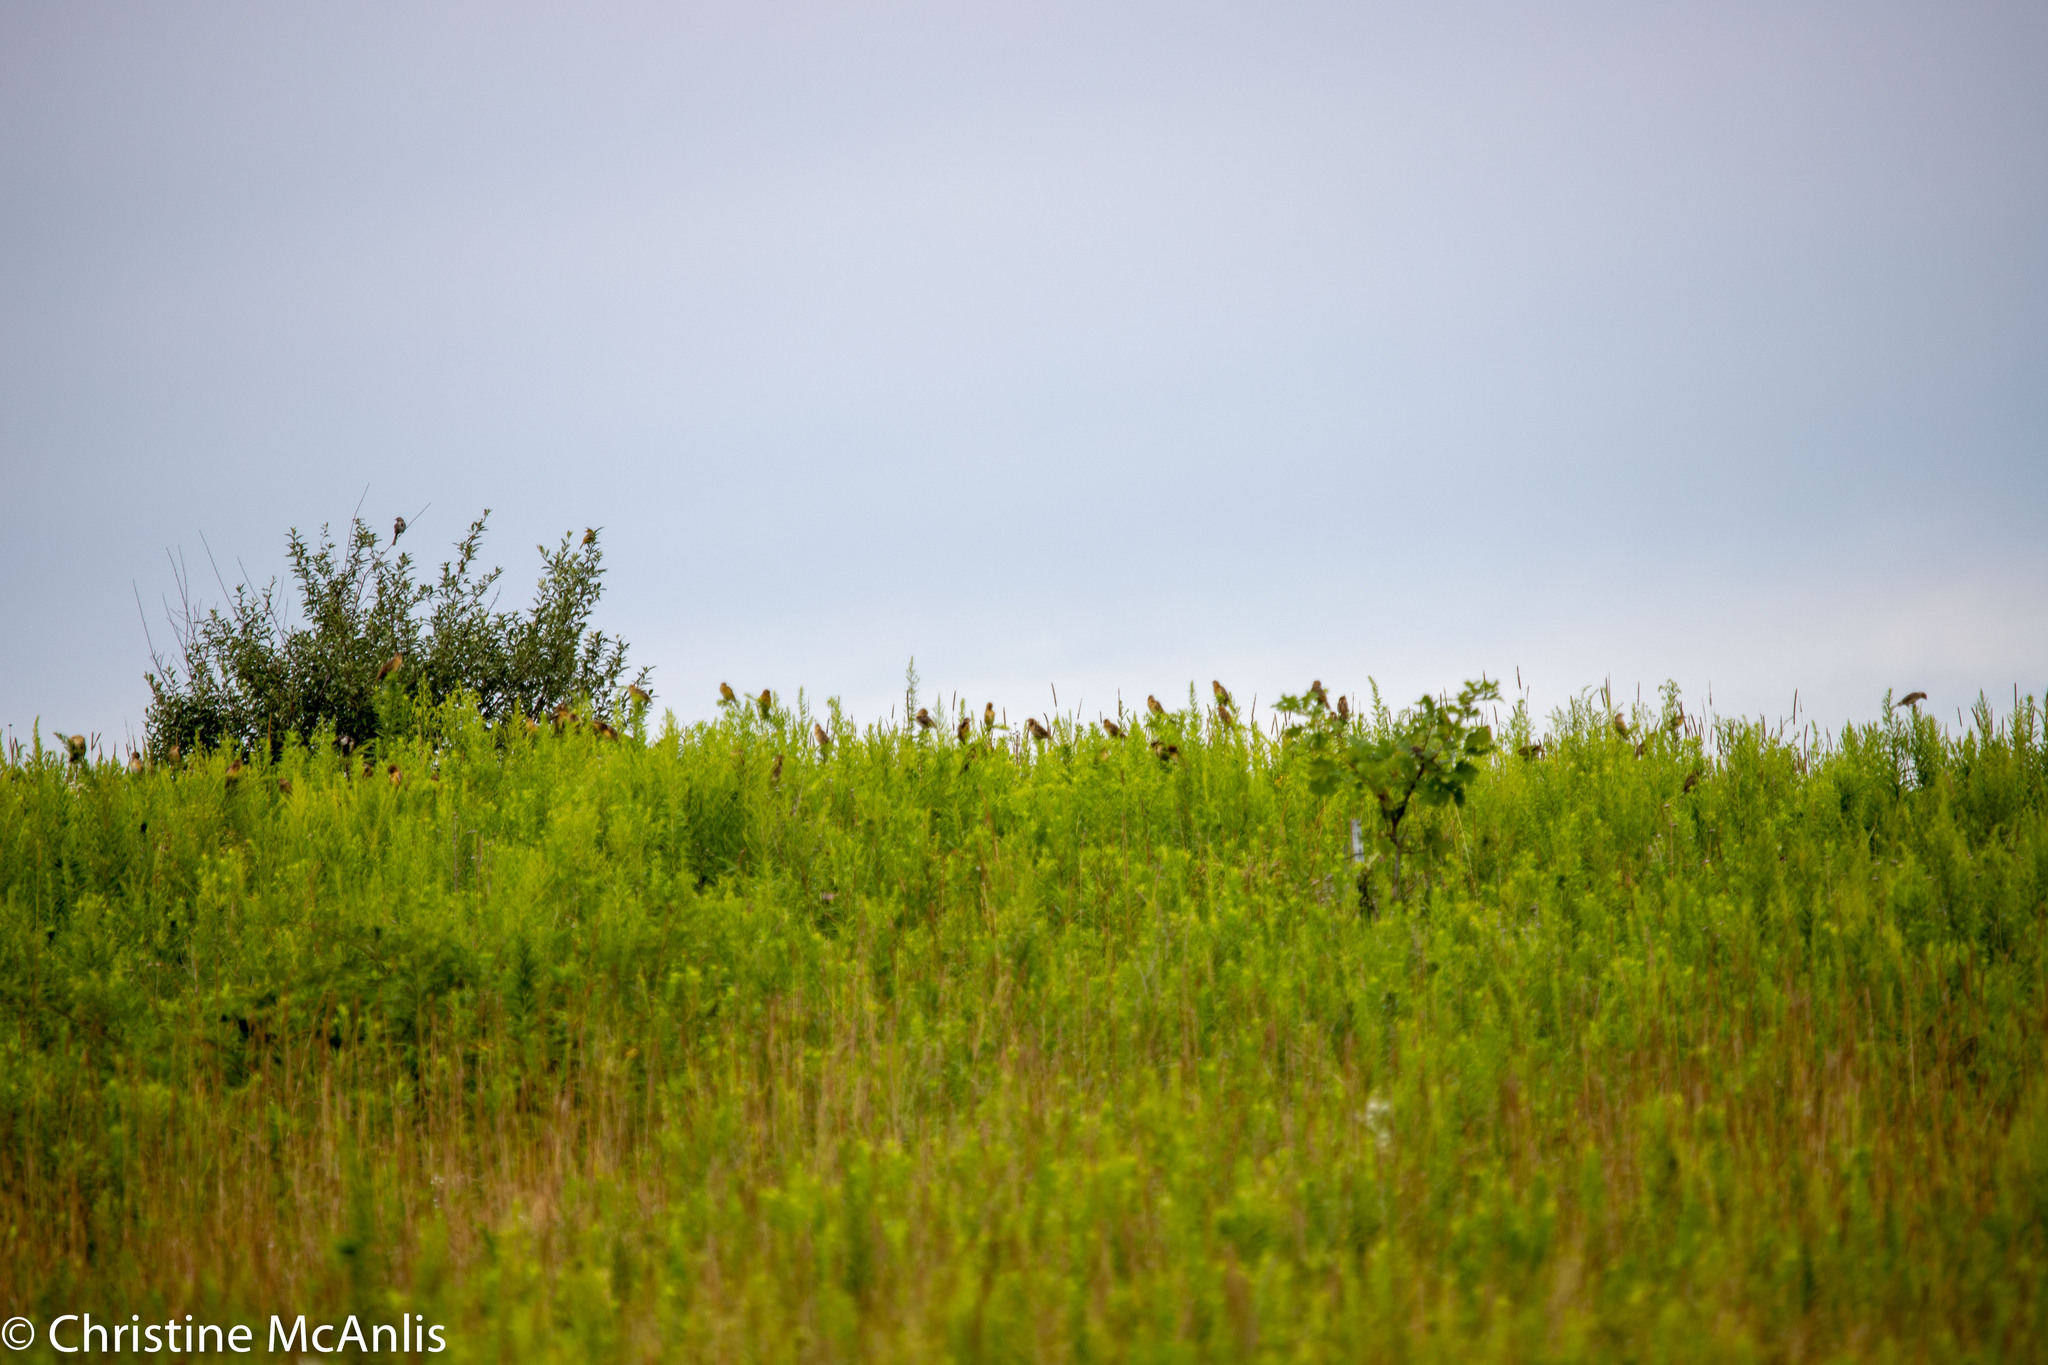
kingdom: Animalia
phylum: Chordata
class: Aves
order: Passeriformes
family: Icteridae
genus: Dolichonyx
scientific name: Dolichonyx oryzivorus
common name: Bobolink
